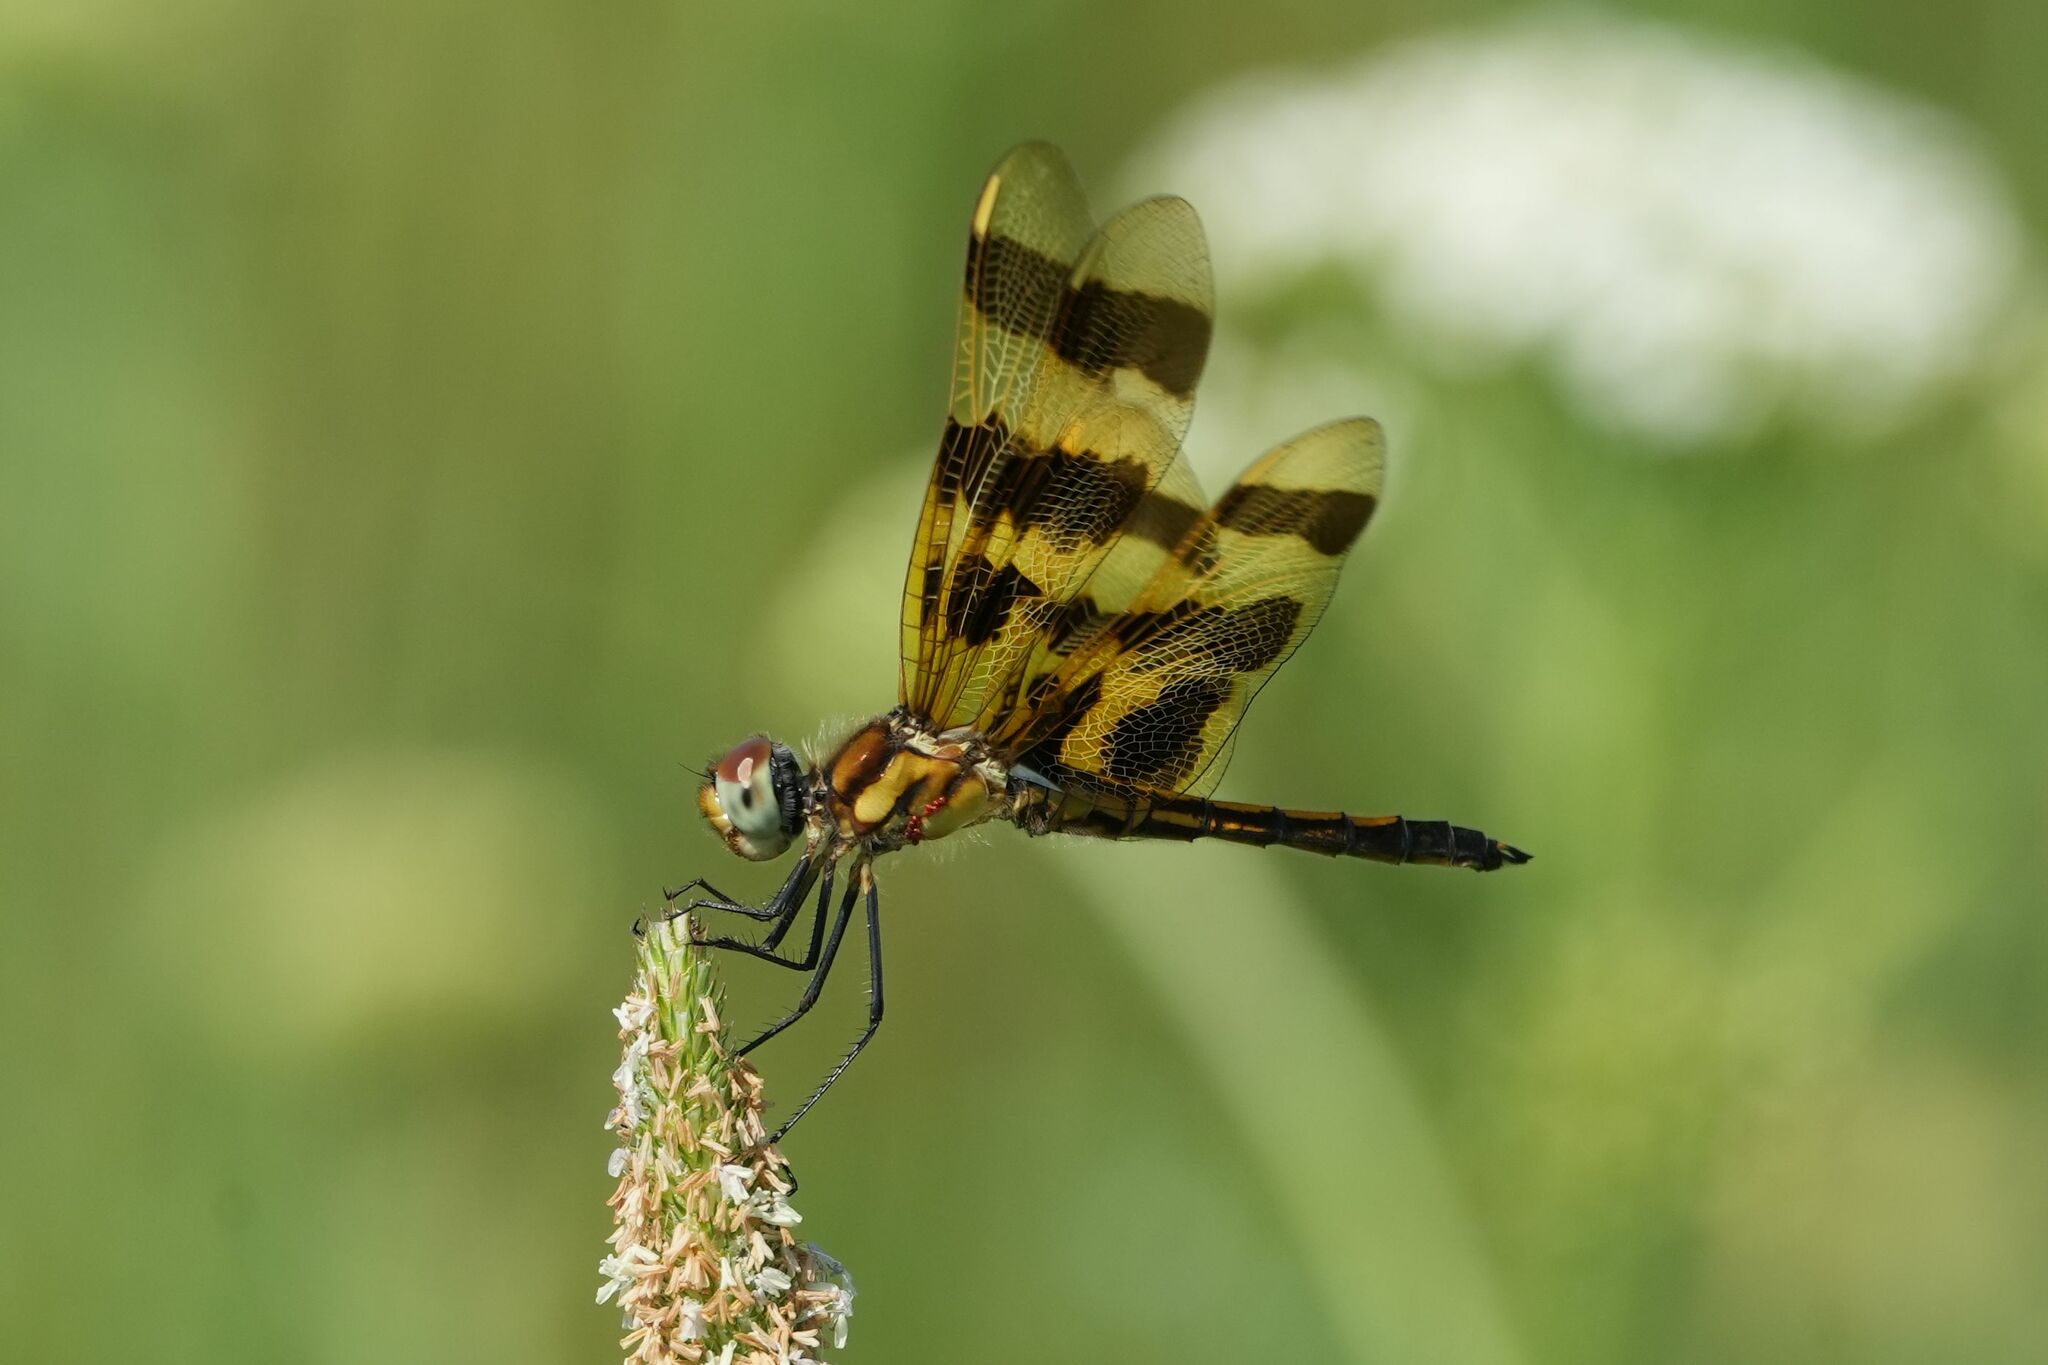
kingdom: Animalia
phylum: Arthropoda
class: Insecta
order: Odonata
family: Libellulidae
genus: Celithemis
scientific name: Celithemis eponina
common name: Halloween pennant
